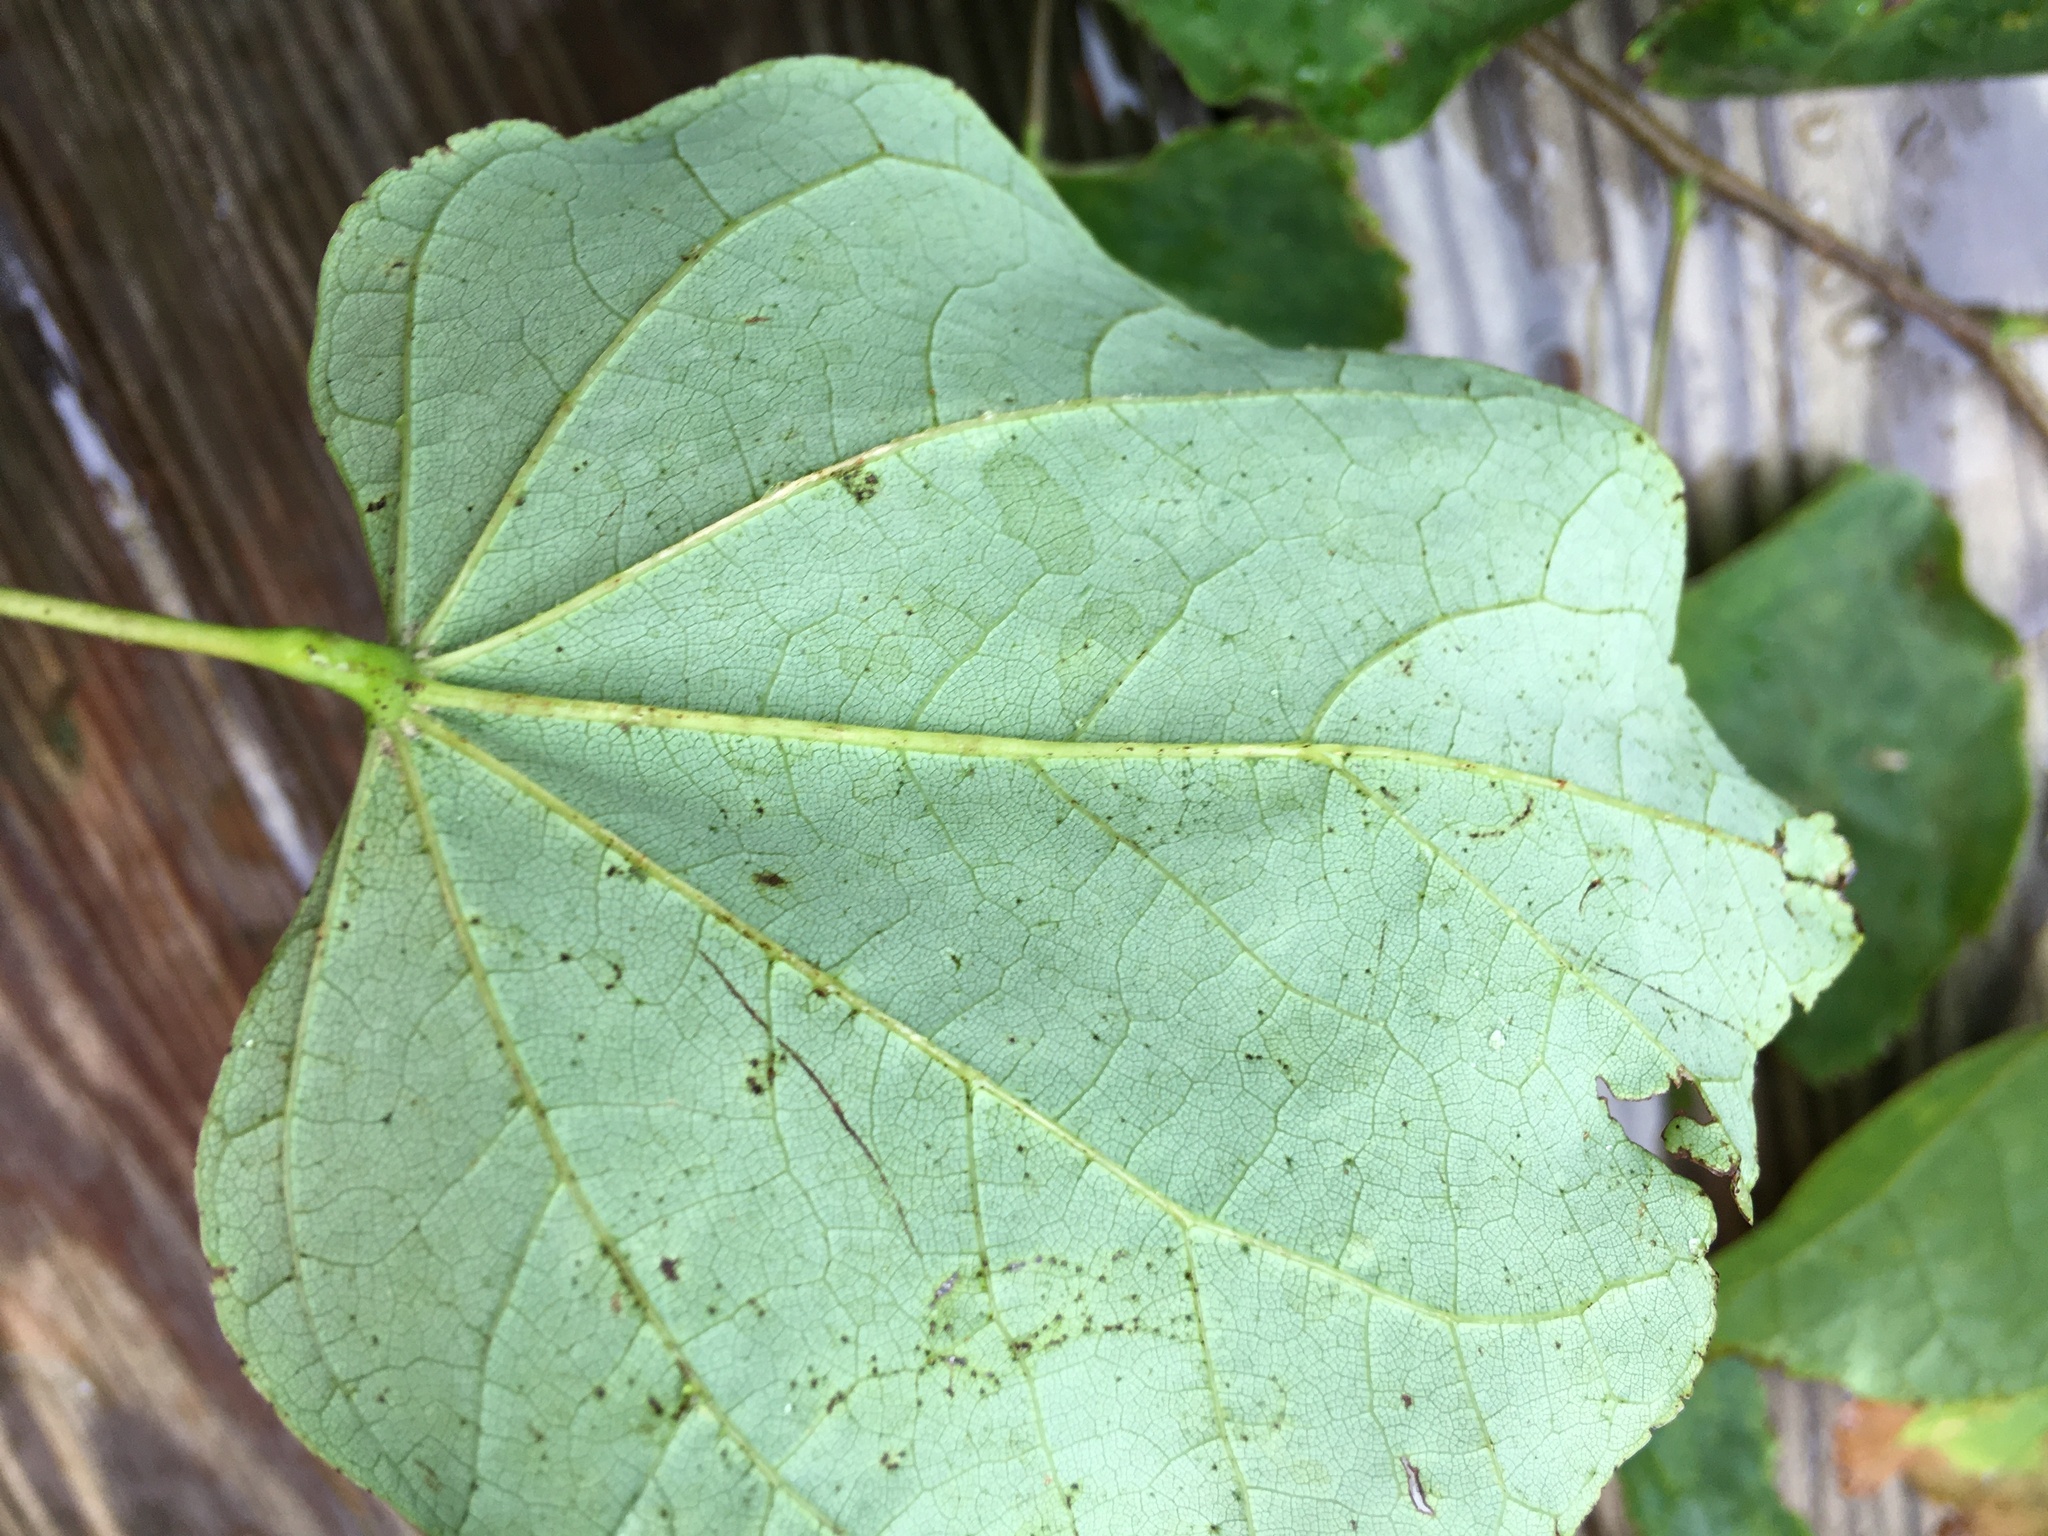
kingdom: Plantae
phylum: Tracheophyta
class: Magnoliopsida
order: Fabales
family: Fabaceae
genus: Cercis
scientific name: Cercis canadensis
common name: Eastern redbud
